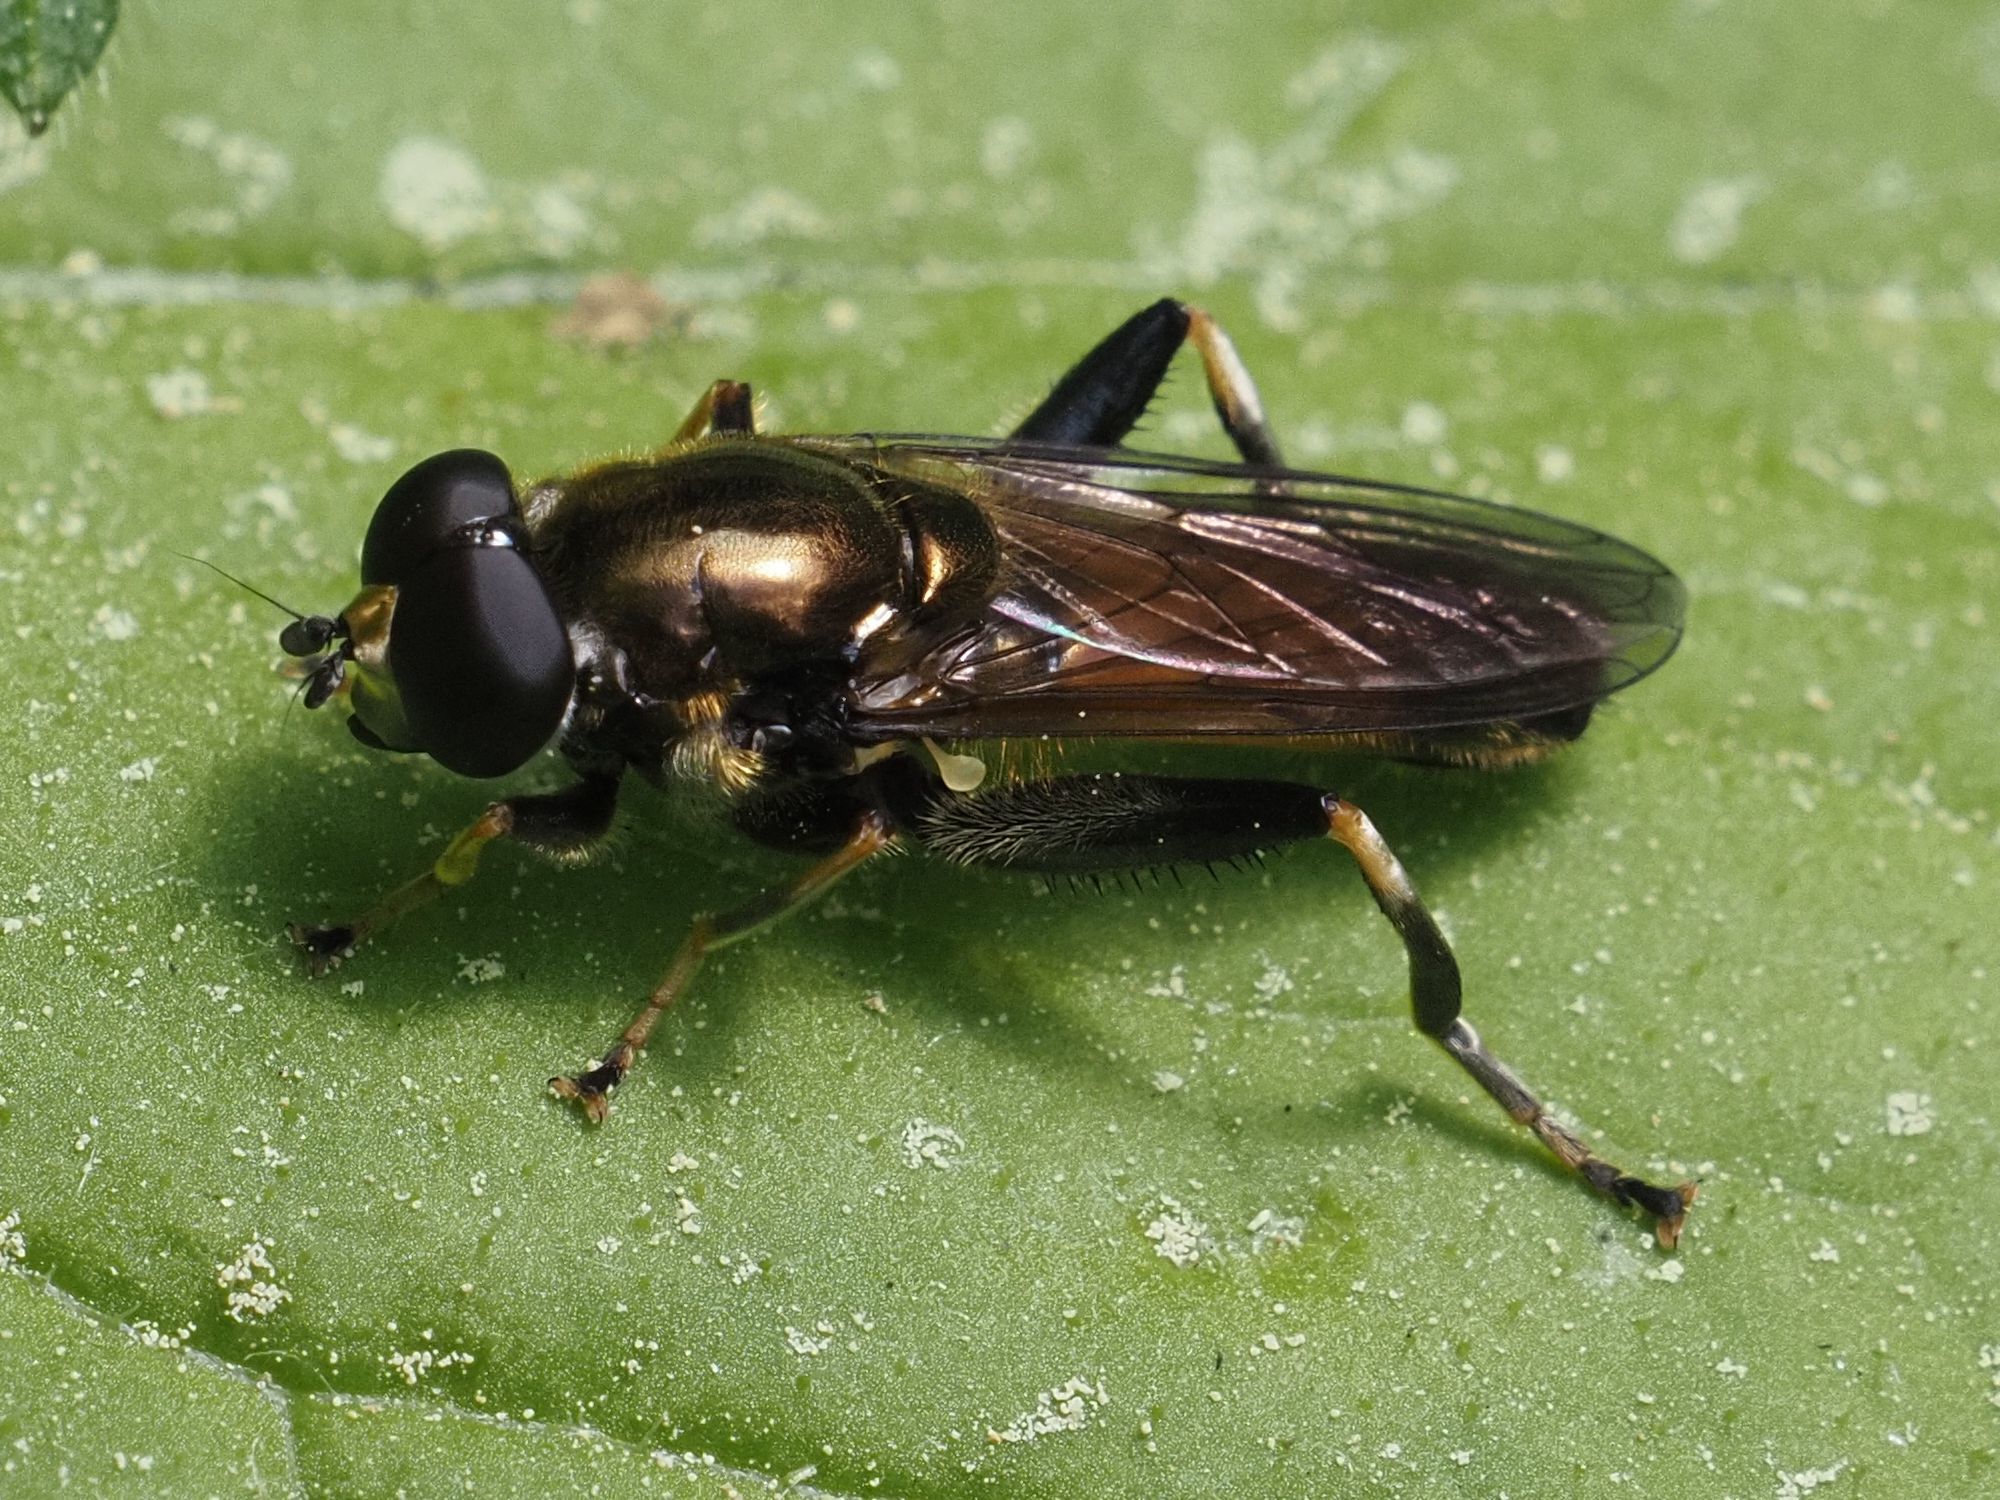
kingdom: Animalia
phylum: Arthropoda
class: Insecta
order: Diptera
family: Syrphidae
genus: Xylota
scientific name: Xylota segnis
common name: Brown-toed forest fly
